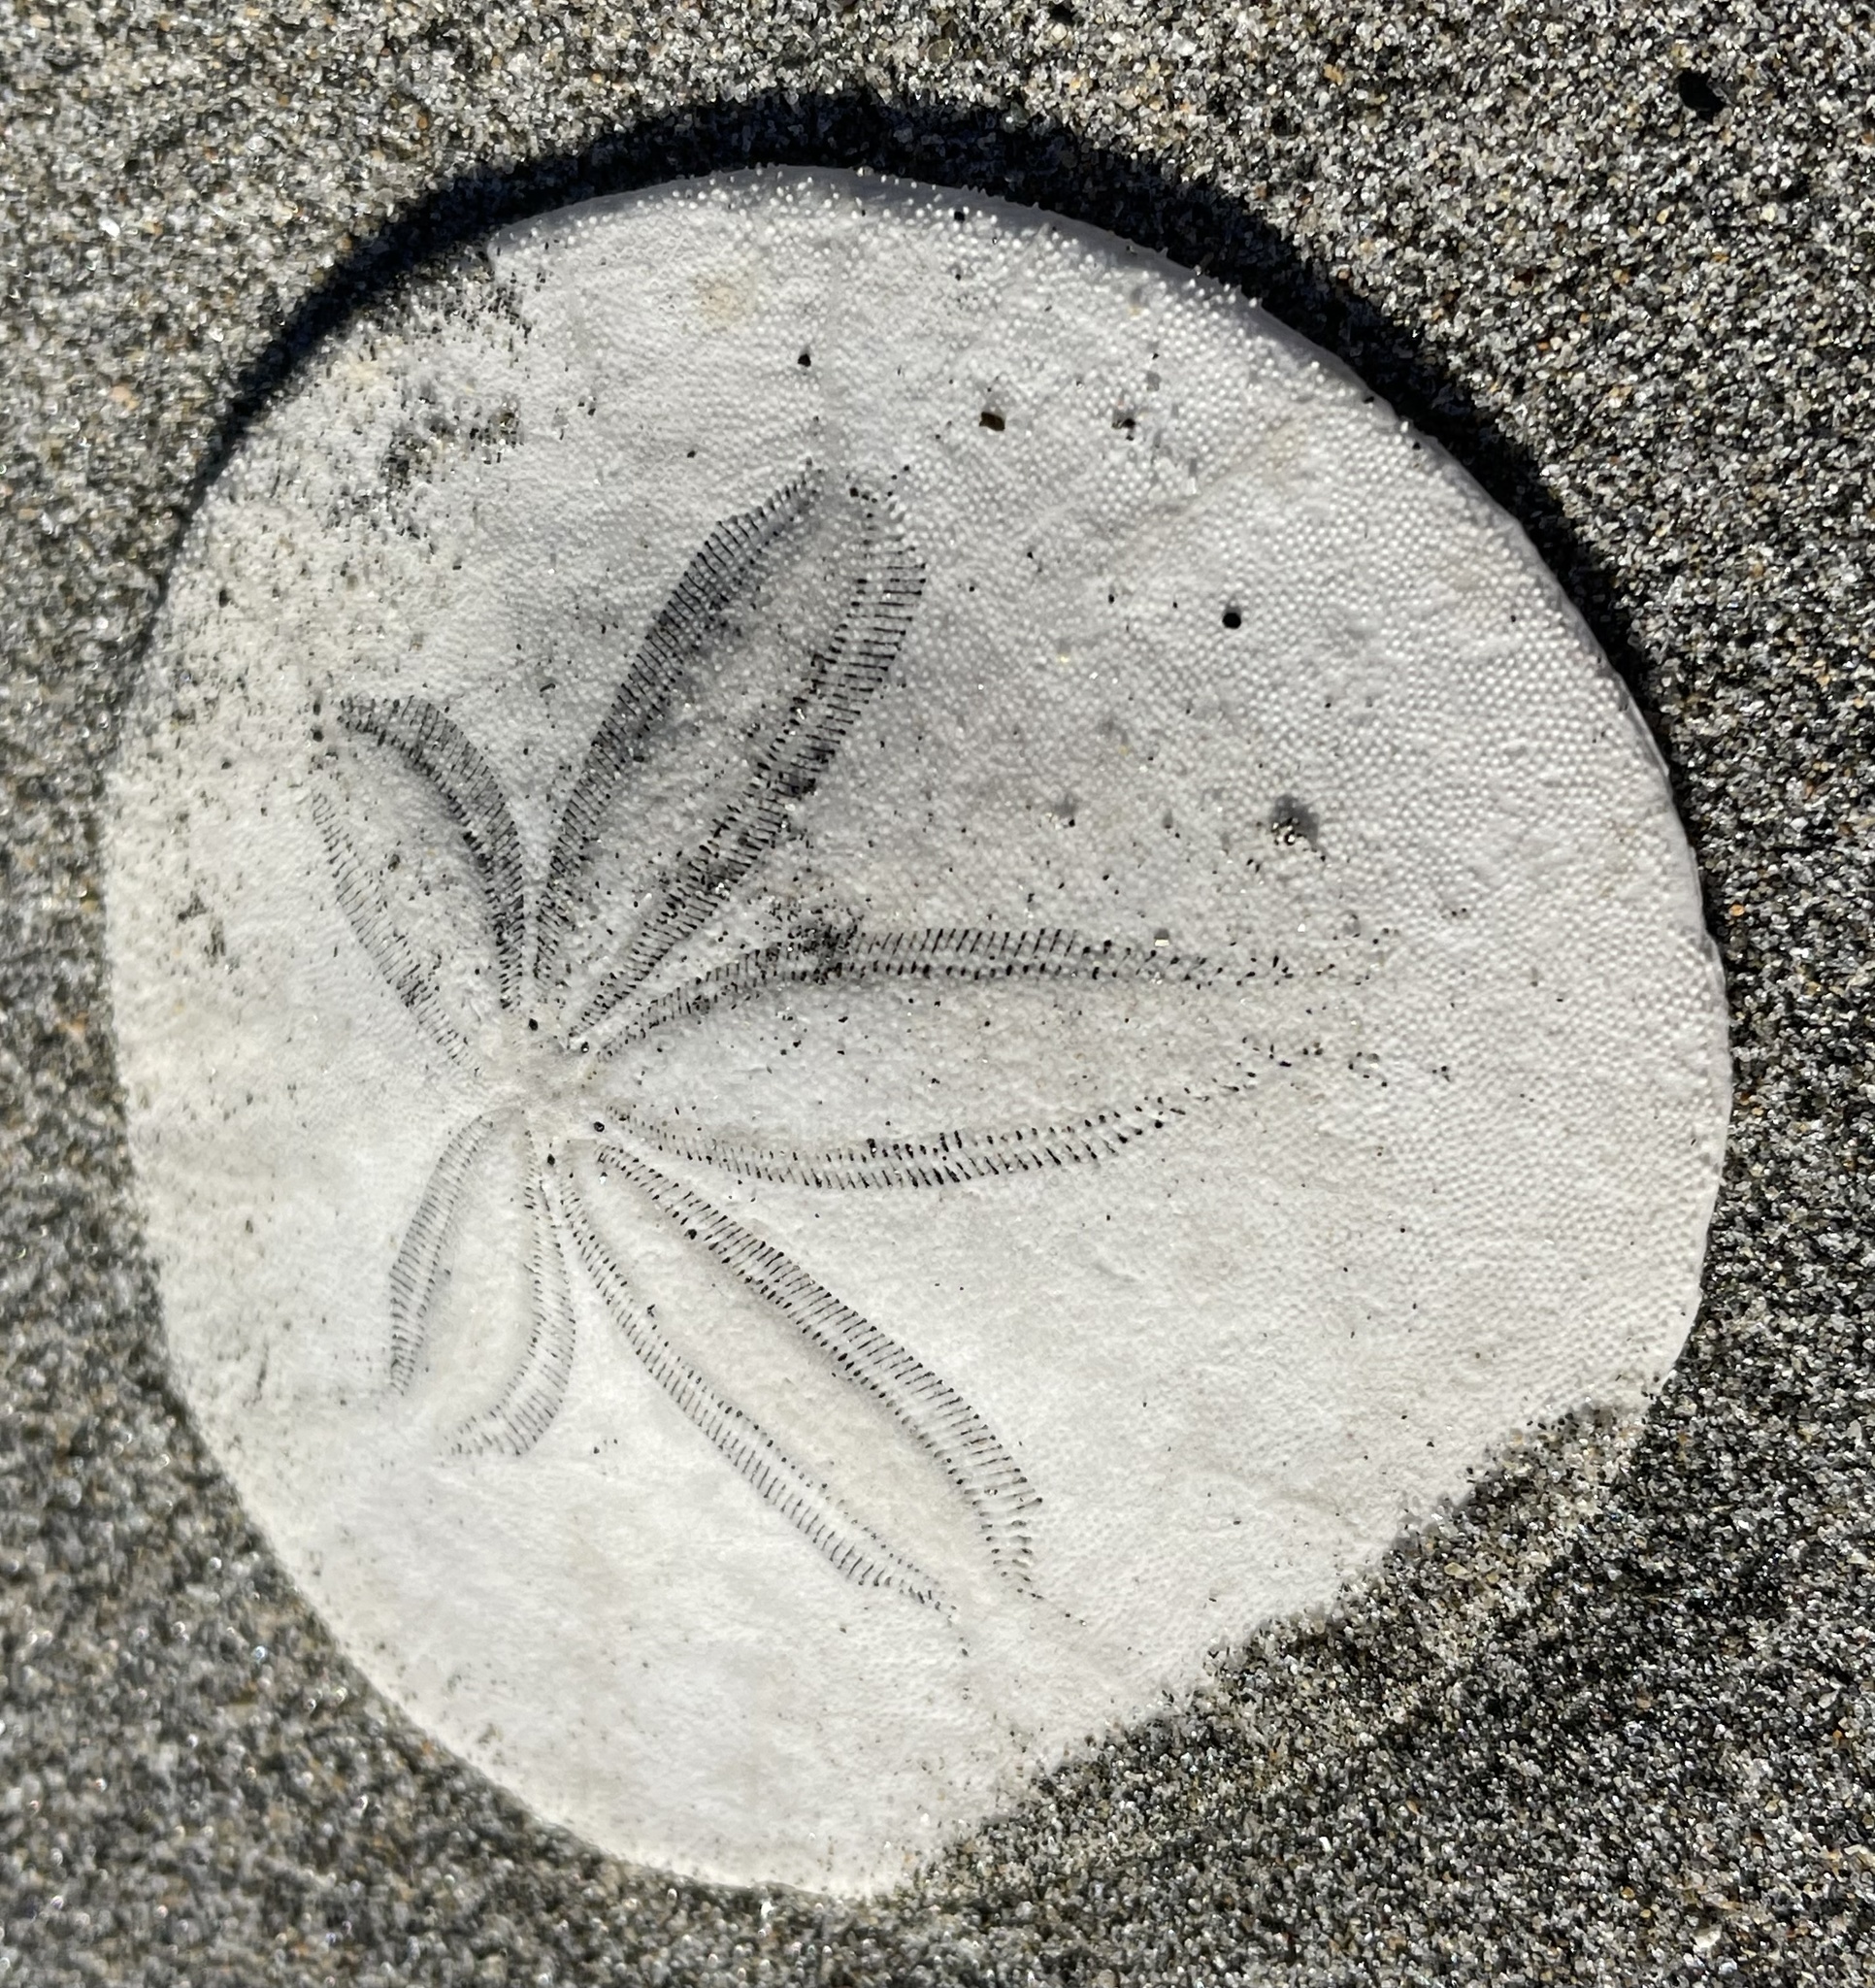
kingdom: Animalia
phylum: Echinodermata
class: Echinoidea
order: Echinolampadacea
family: Dendrasteridae
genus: Dendraster
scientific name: Dendraster excentricus
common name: Eccentric sand dollar sea urchin
